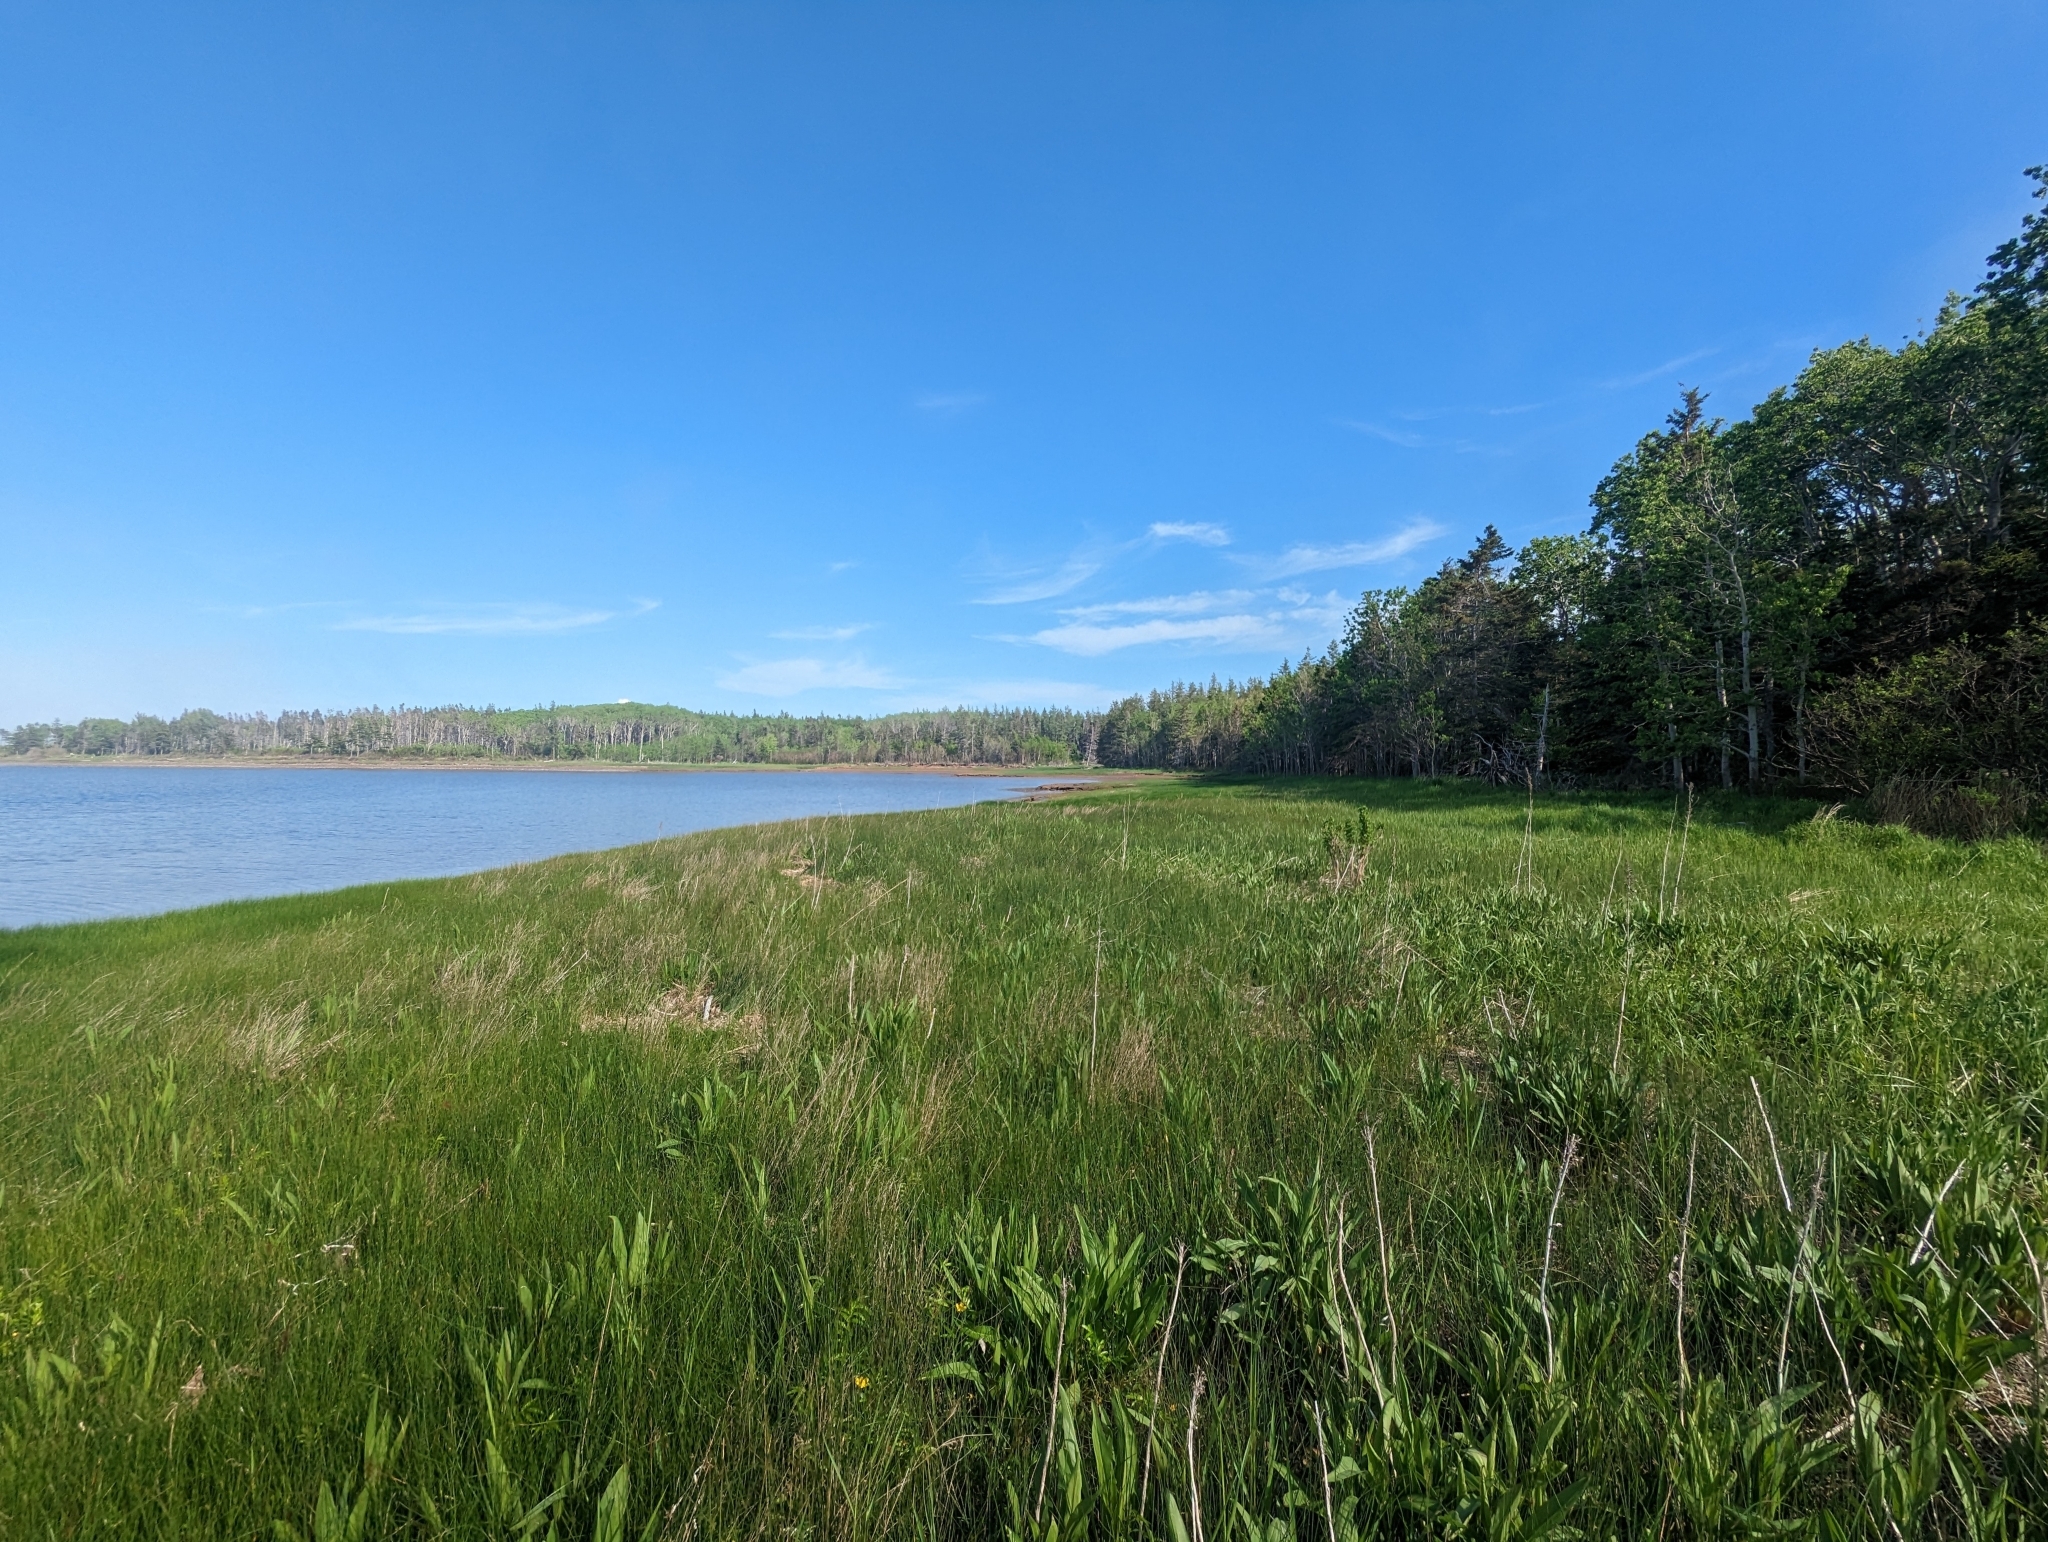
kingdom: Plantae
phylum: Tracheophyta
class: Liliopsida
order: Poales
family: Poaceae
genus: Anthoxanthum
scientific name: Anthoxanthum nitens
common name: Holy grass
